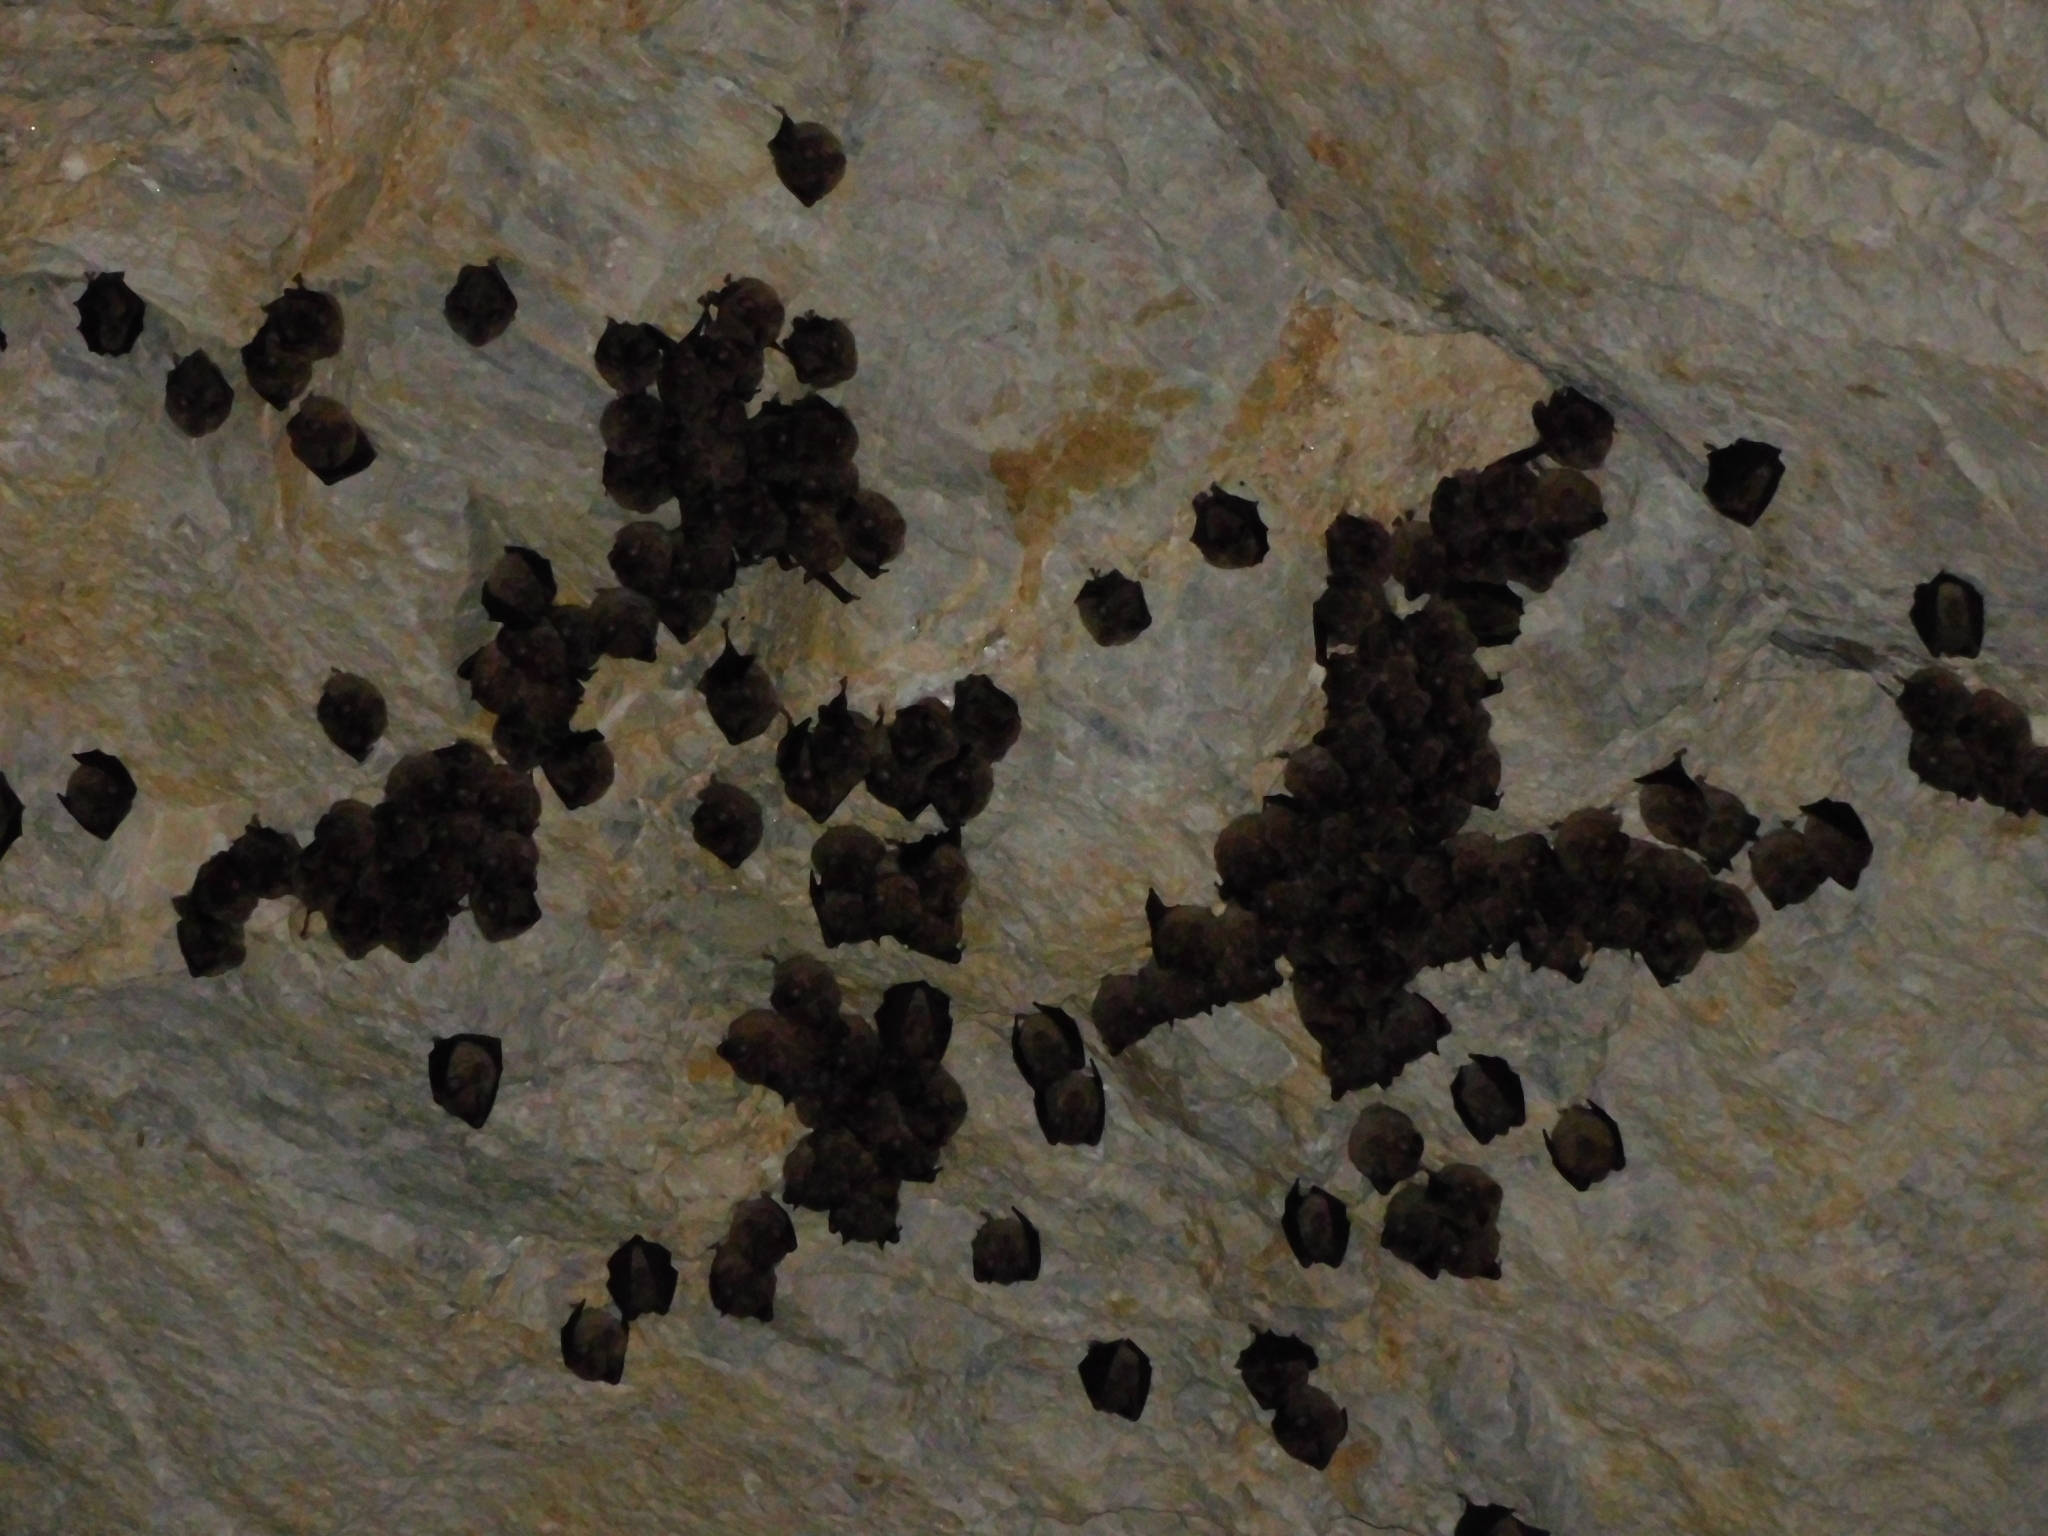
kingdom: Animalia
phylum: Chordata
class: Mammalia
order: Chiroptera
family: Rhinolophidae
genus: Rhinolophus
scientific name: Rhinolophus ferrumequinum
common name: Greater horseshoe bat
